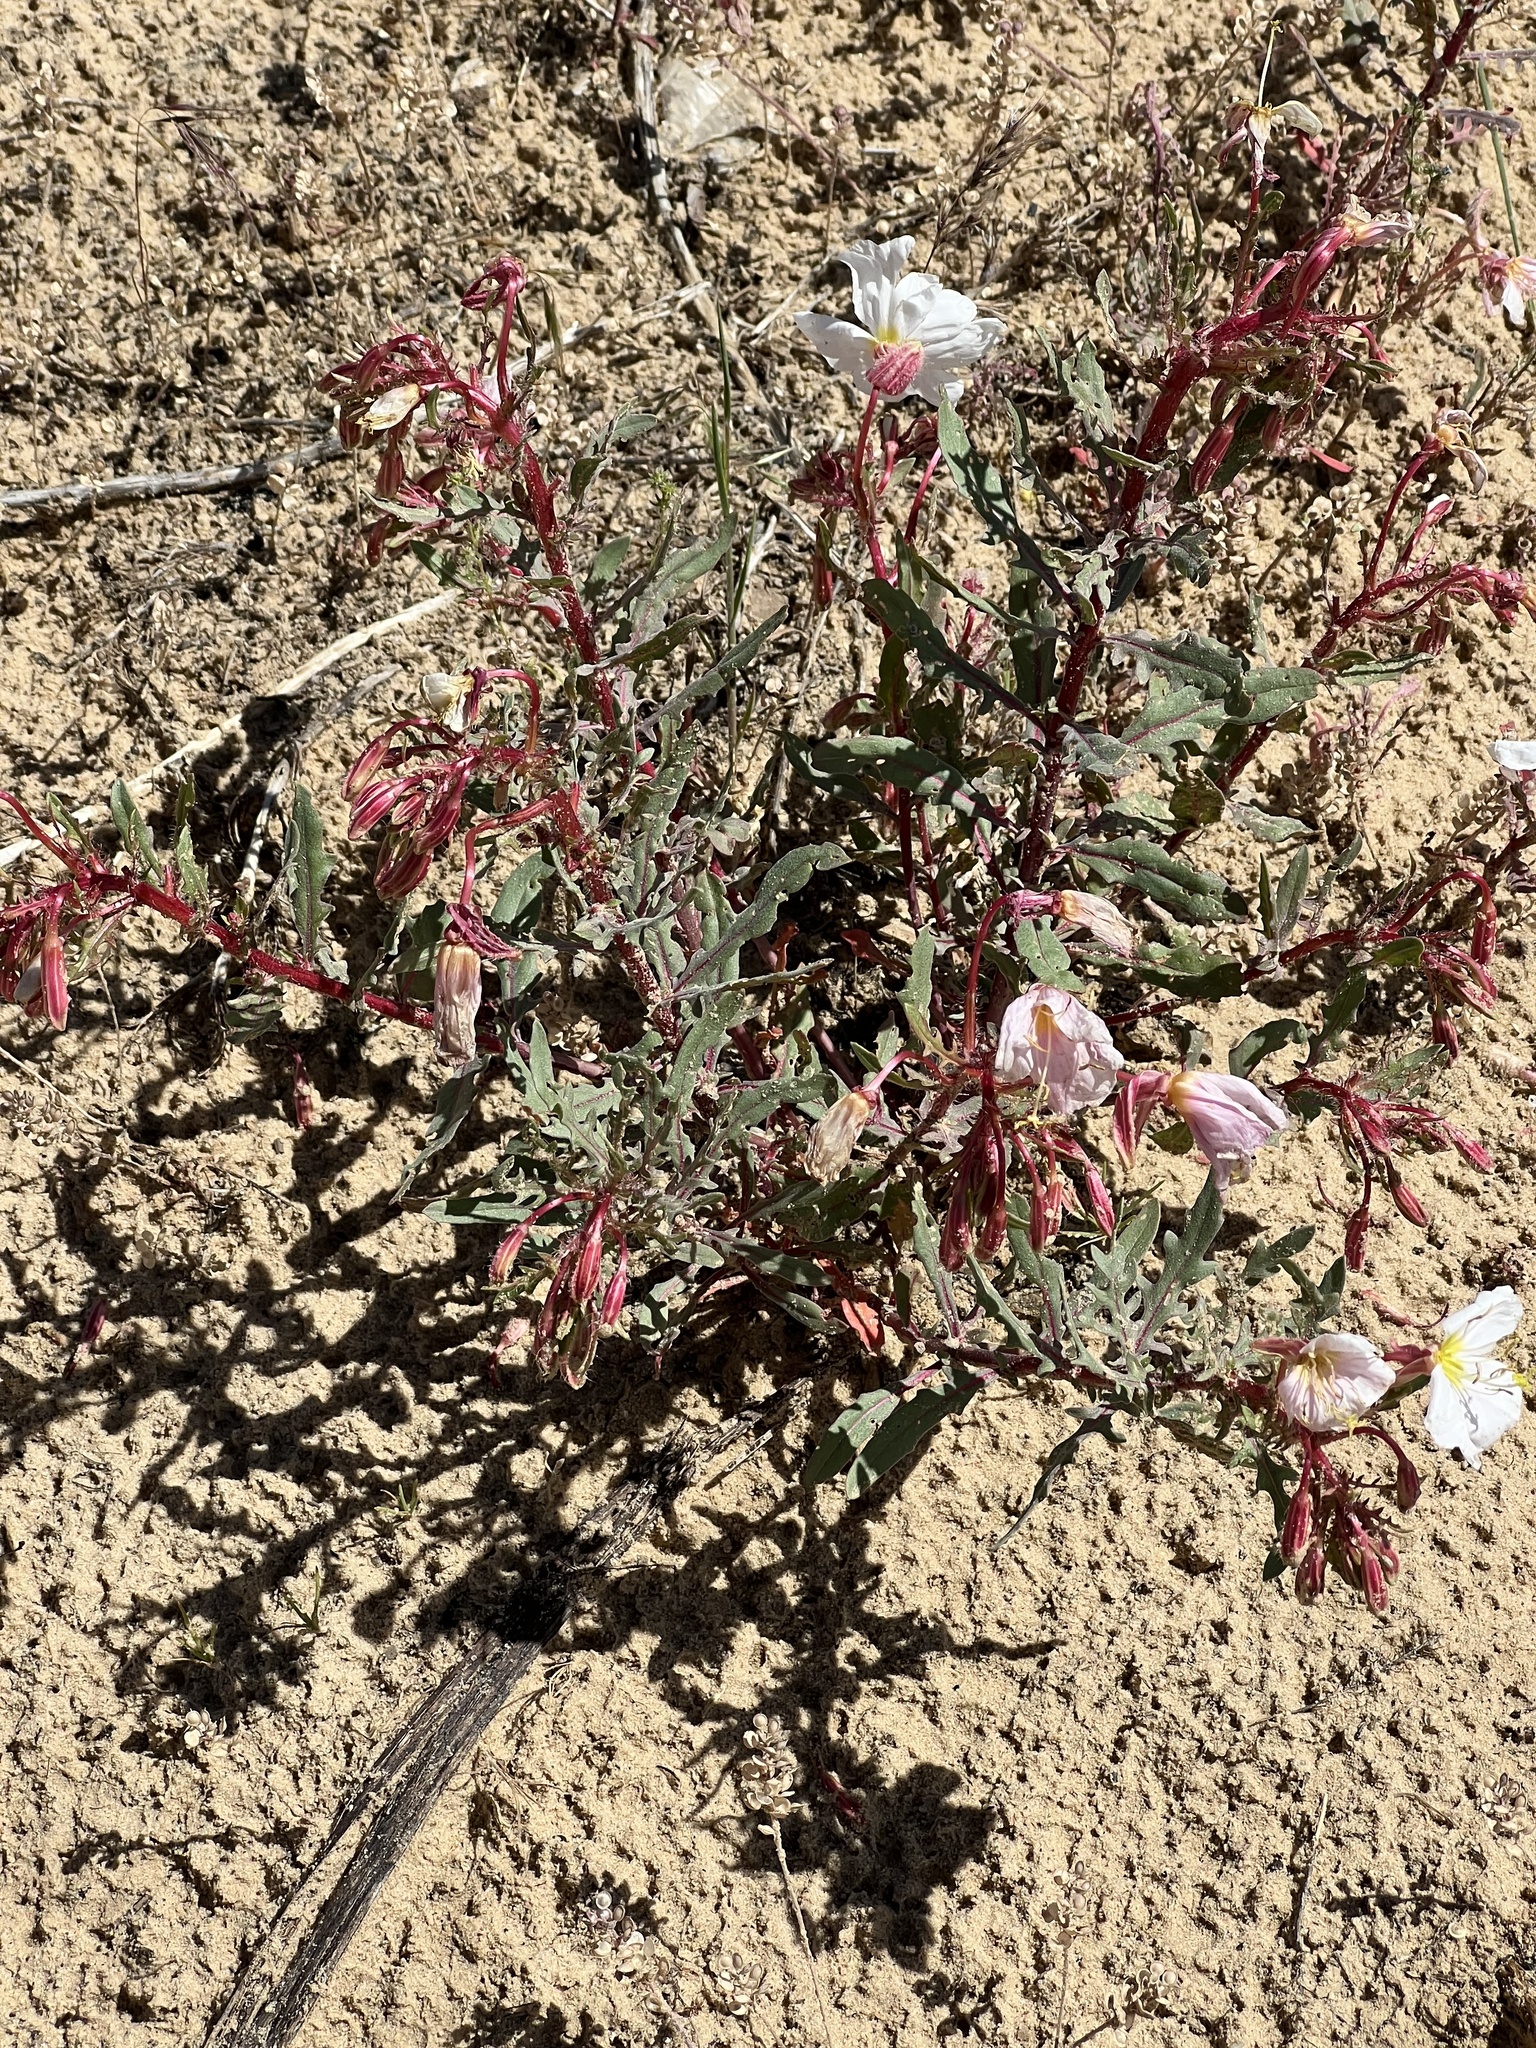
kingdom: Plantae
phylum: Tracheophyta
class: Magnoliopsida
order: Myrtales
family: Onagraceae
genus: Oenothera
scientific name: Oenothera pallida
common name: Pale evening-primrose
